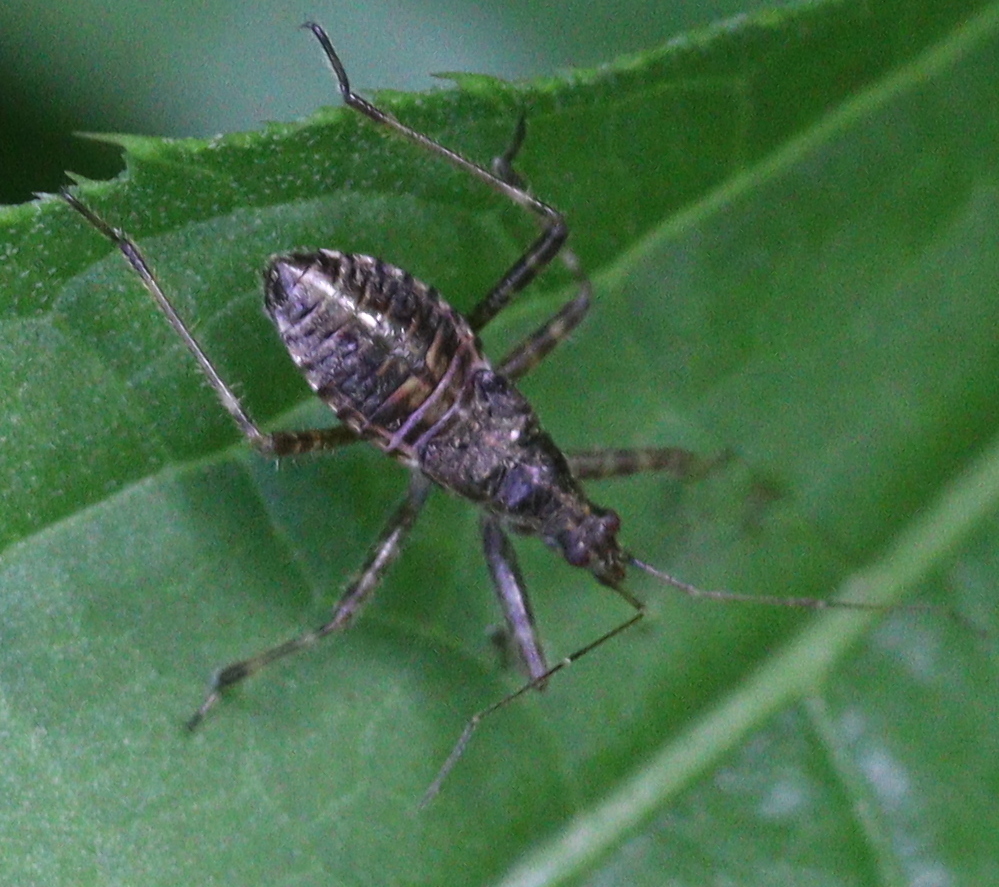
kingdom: Animalia
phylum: Arthropoda
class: Insecta
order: Hemiptera
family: Nabidae
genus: Himacerus
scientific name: Himacerus apterus
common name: Tree damsel bug
